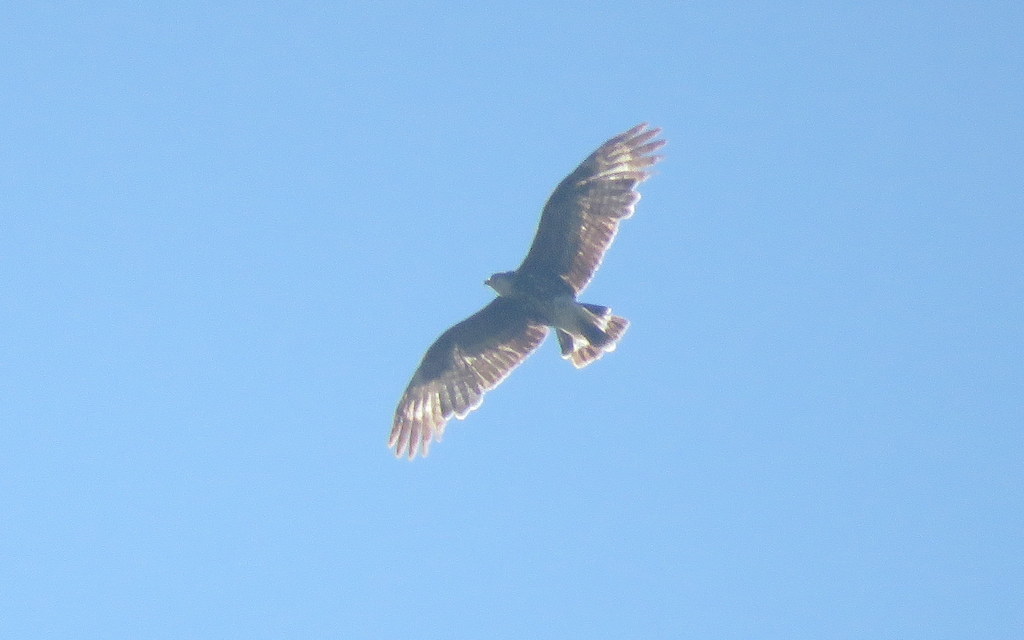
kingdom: Animalia
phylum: Chordata
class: Aves
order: Accipitriformes
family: Accipitridae
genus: Rostrhamus
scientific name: Rostrhamus sociabilis
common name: Snail kite
